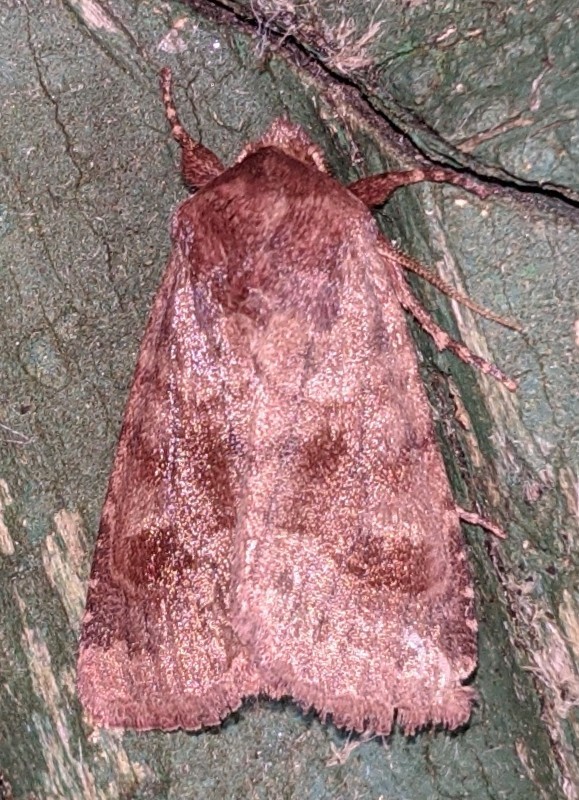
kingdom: Animalia
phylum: Arthropoda
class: Insecta
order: Lepidoptera
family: Noctuidae
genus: Nephelodes
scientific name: Nephelodes minians
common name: Bronzed cutworm
